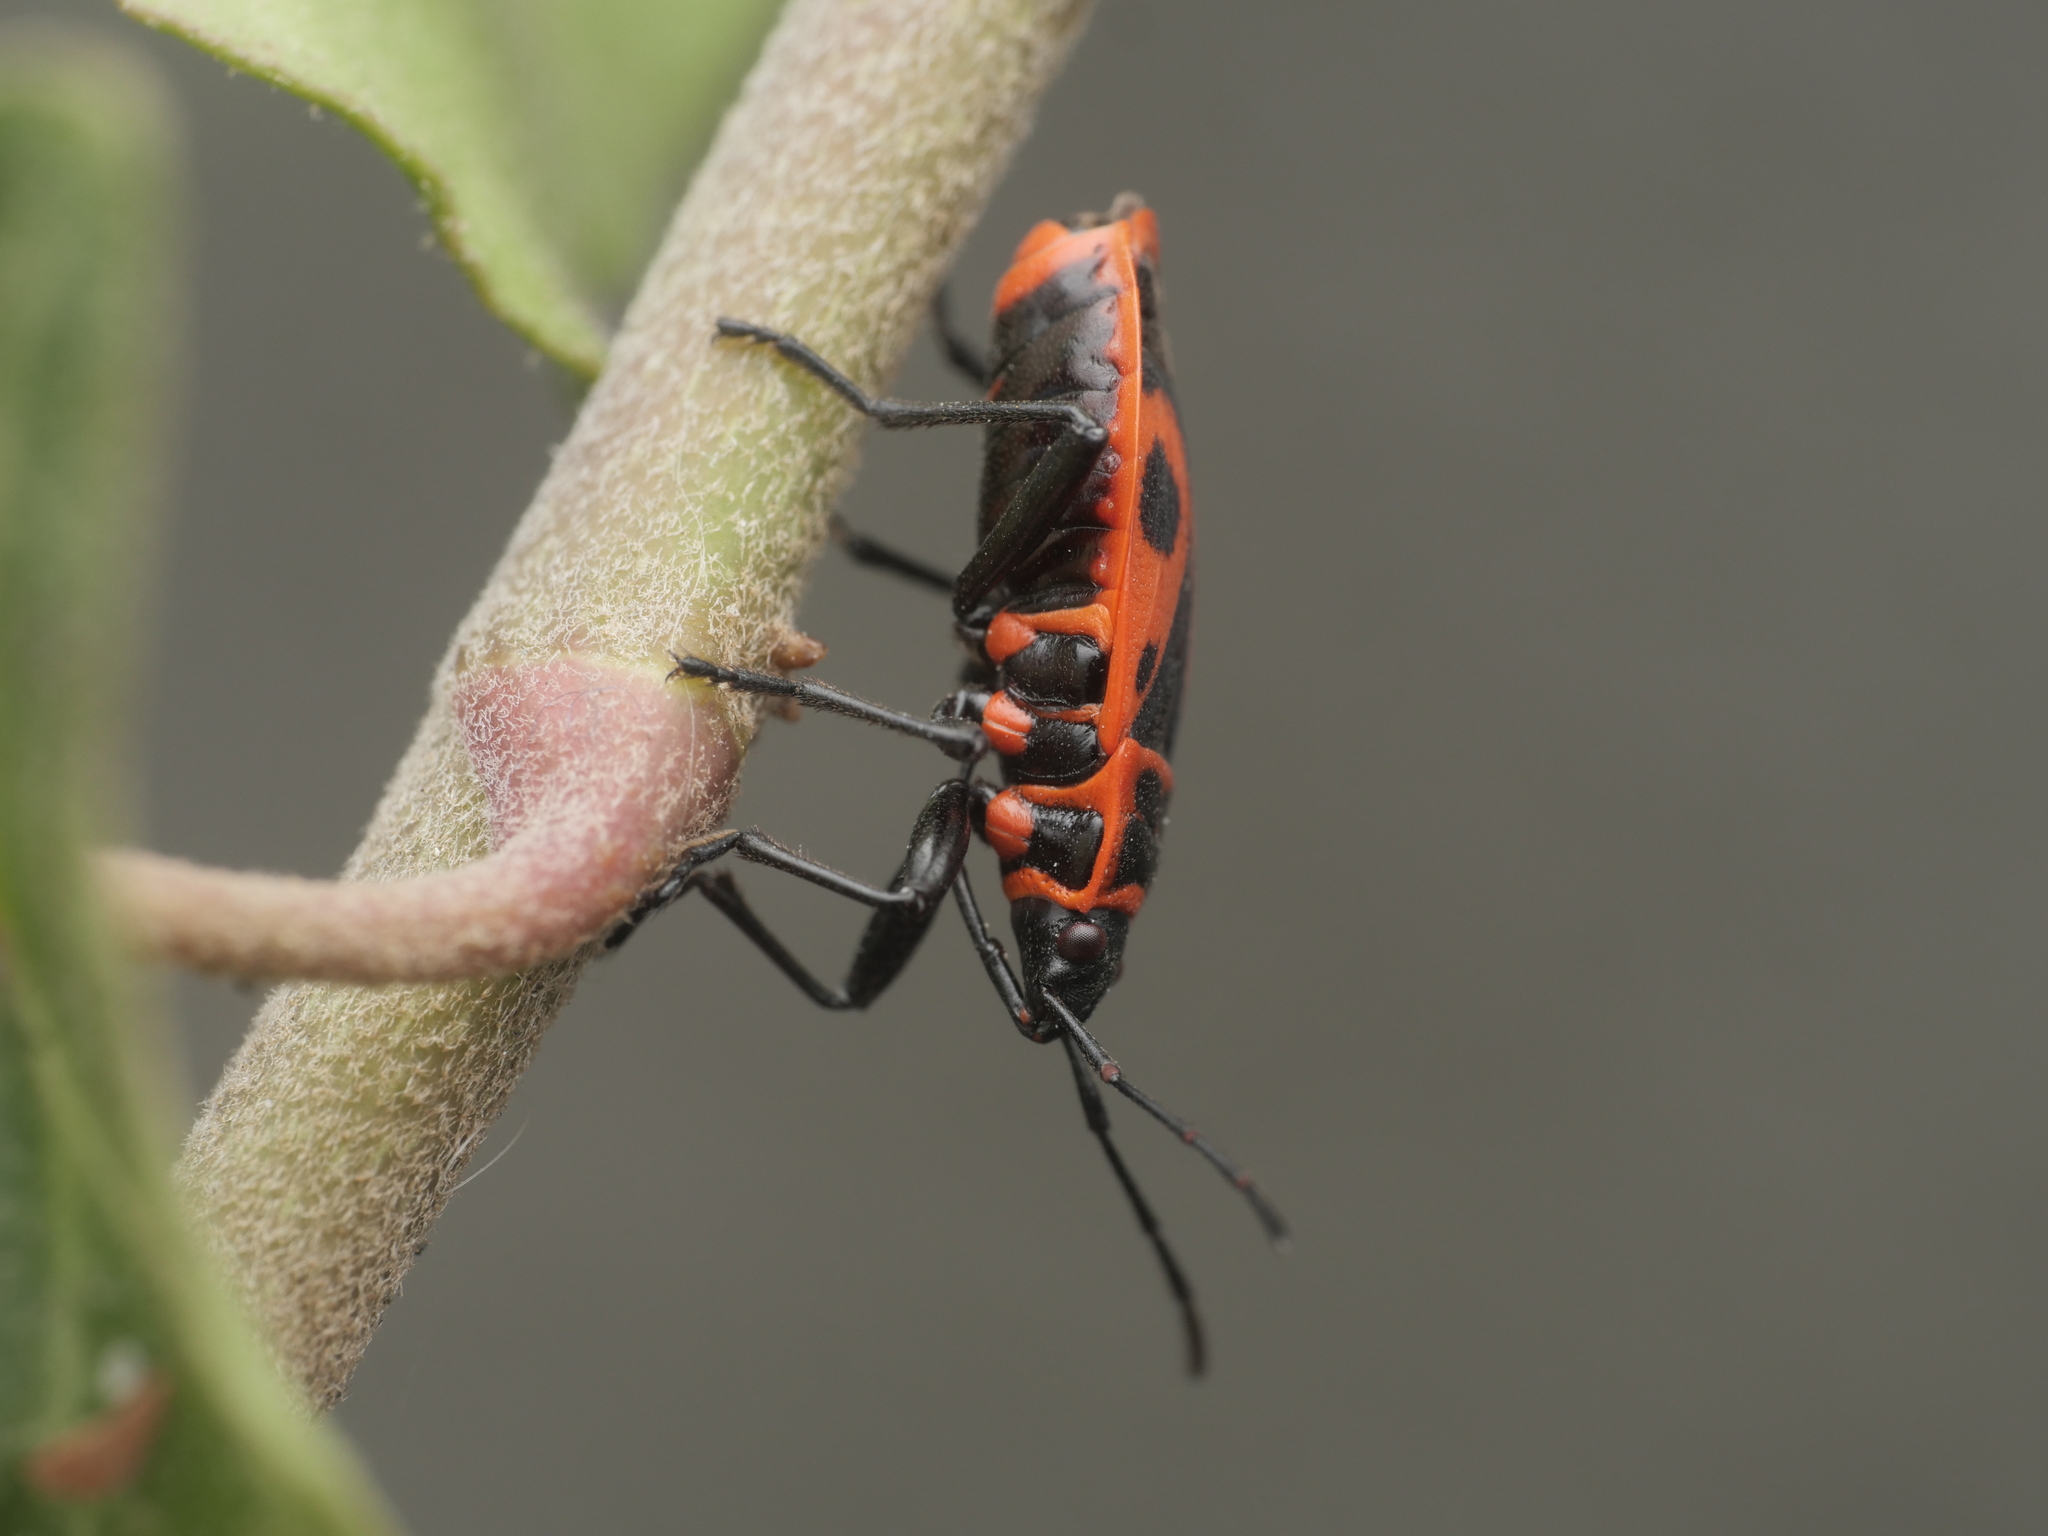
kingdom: Animalia
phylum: Arthropoda
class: Insecta
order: Hemiptera
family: Pyrrhocoridae
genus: Pyrrhocoris
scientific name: Pyrrhocoris apterus
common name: Firebug
